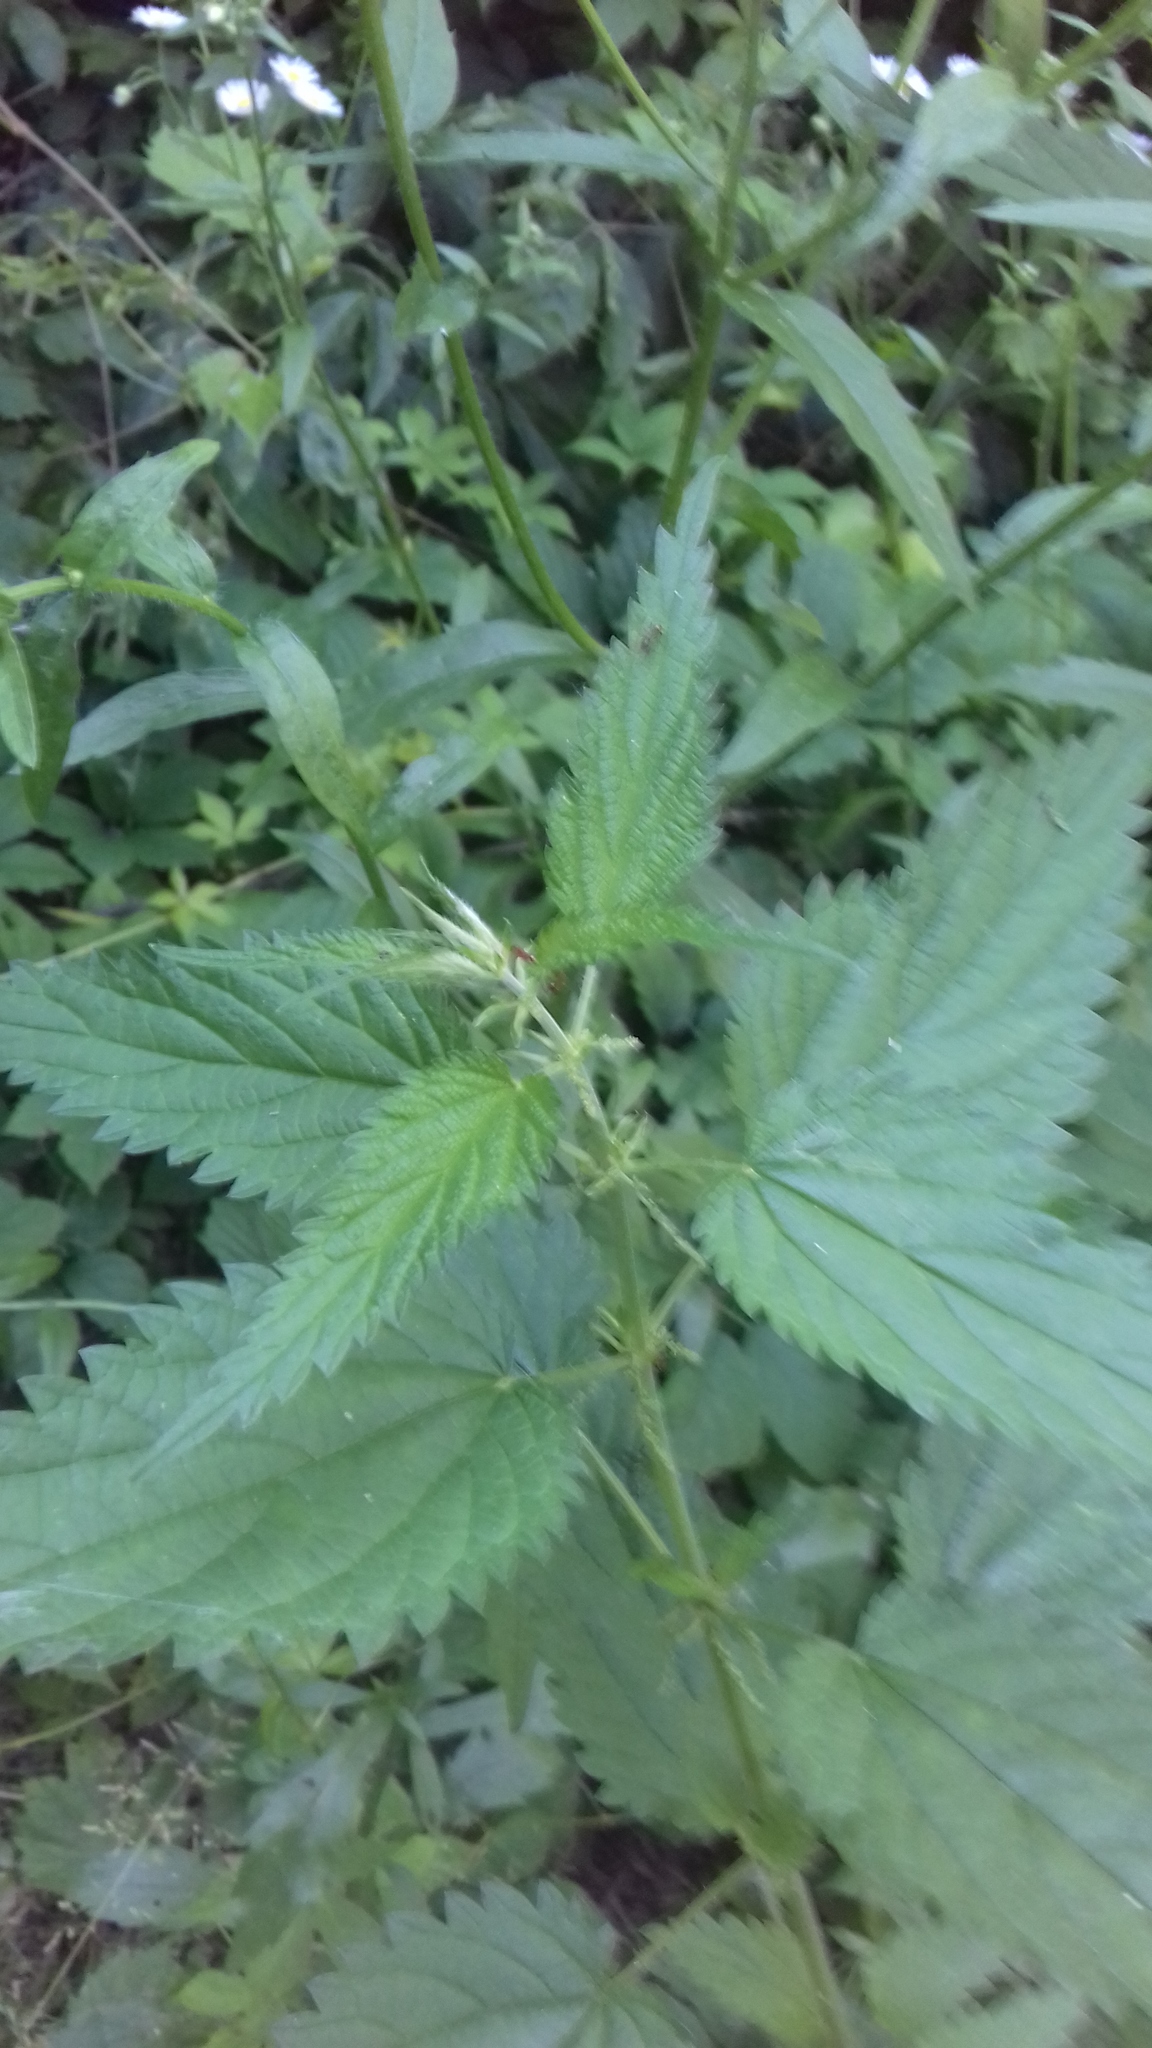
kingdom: Plantae
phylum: Tracheophyta
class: Magnoliopsida
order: Rosales
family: Urticaceae
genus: Urtica
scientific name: Urtica dioica
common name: Common nettle
